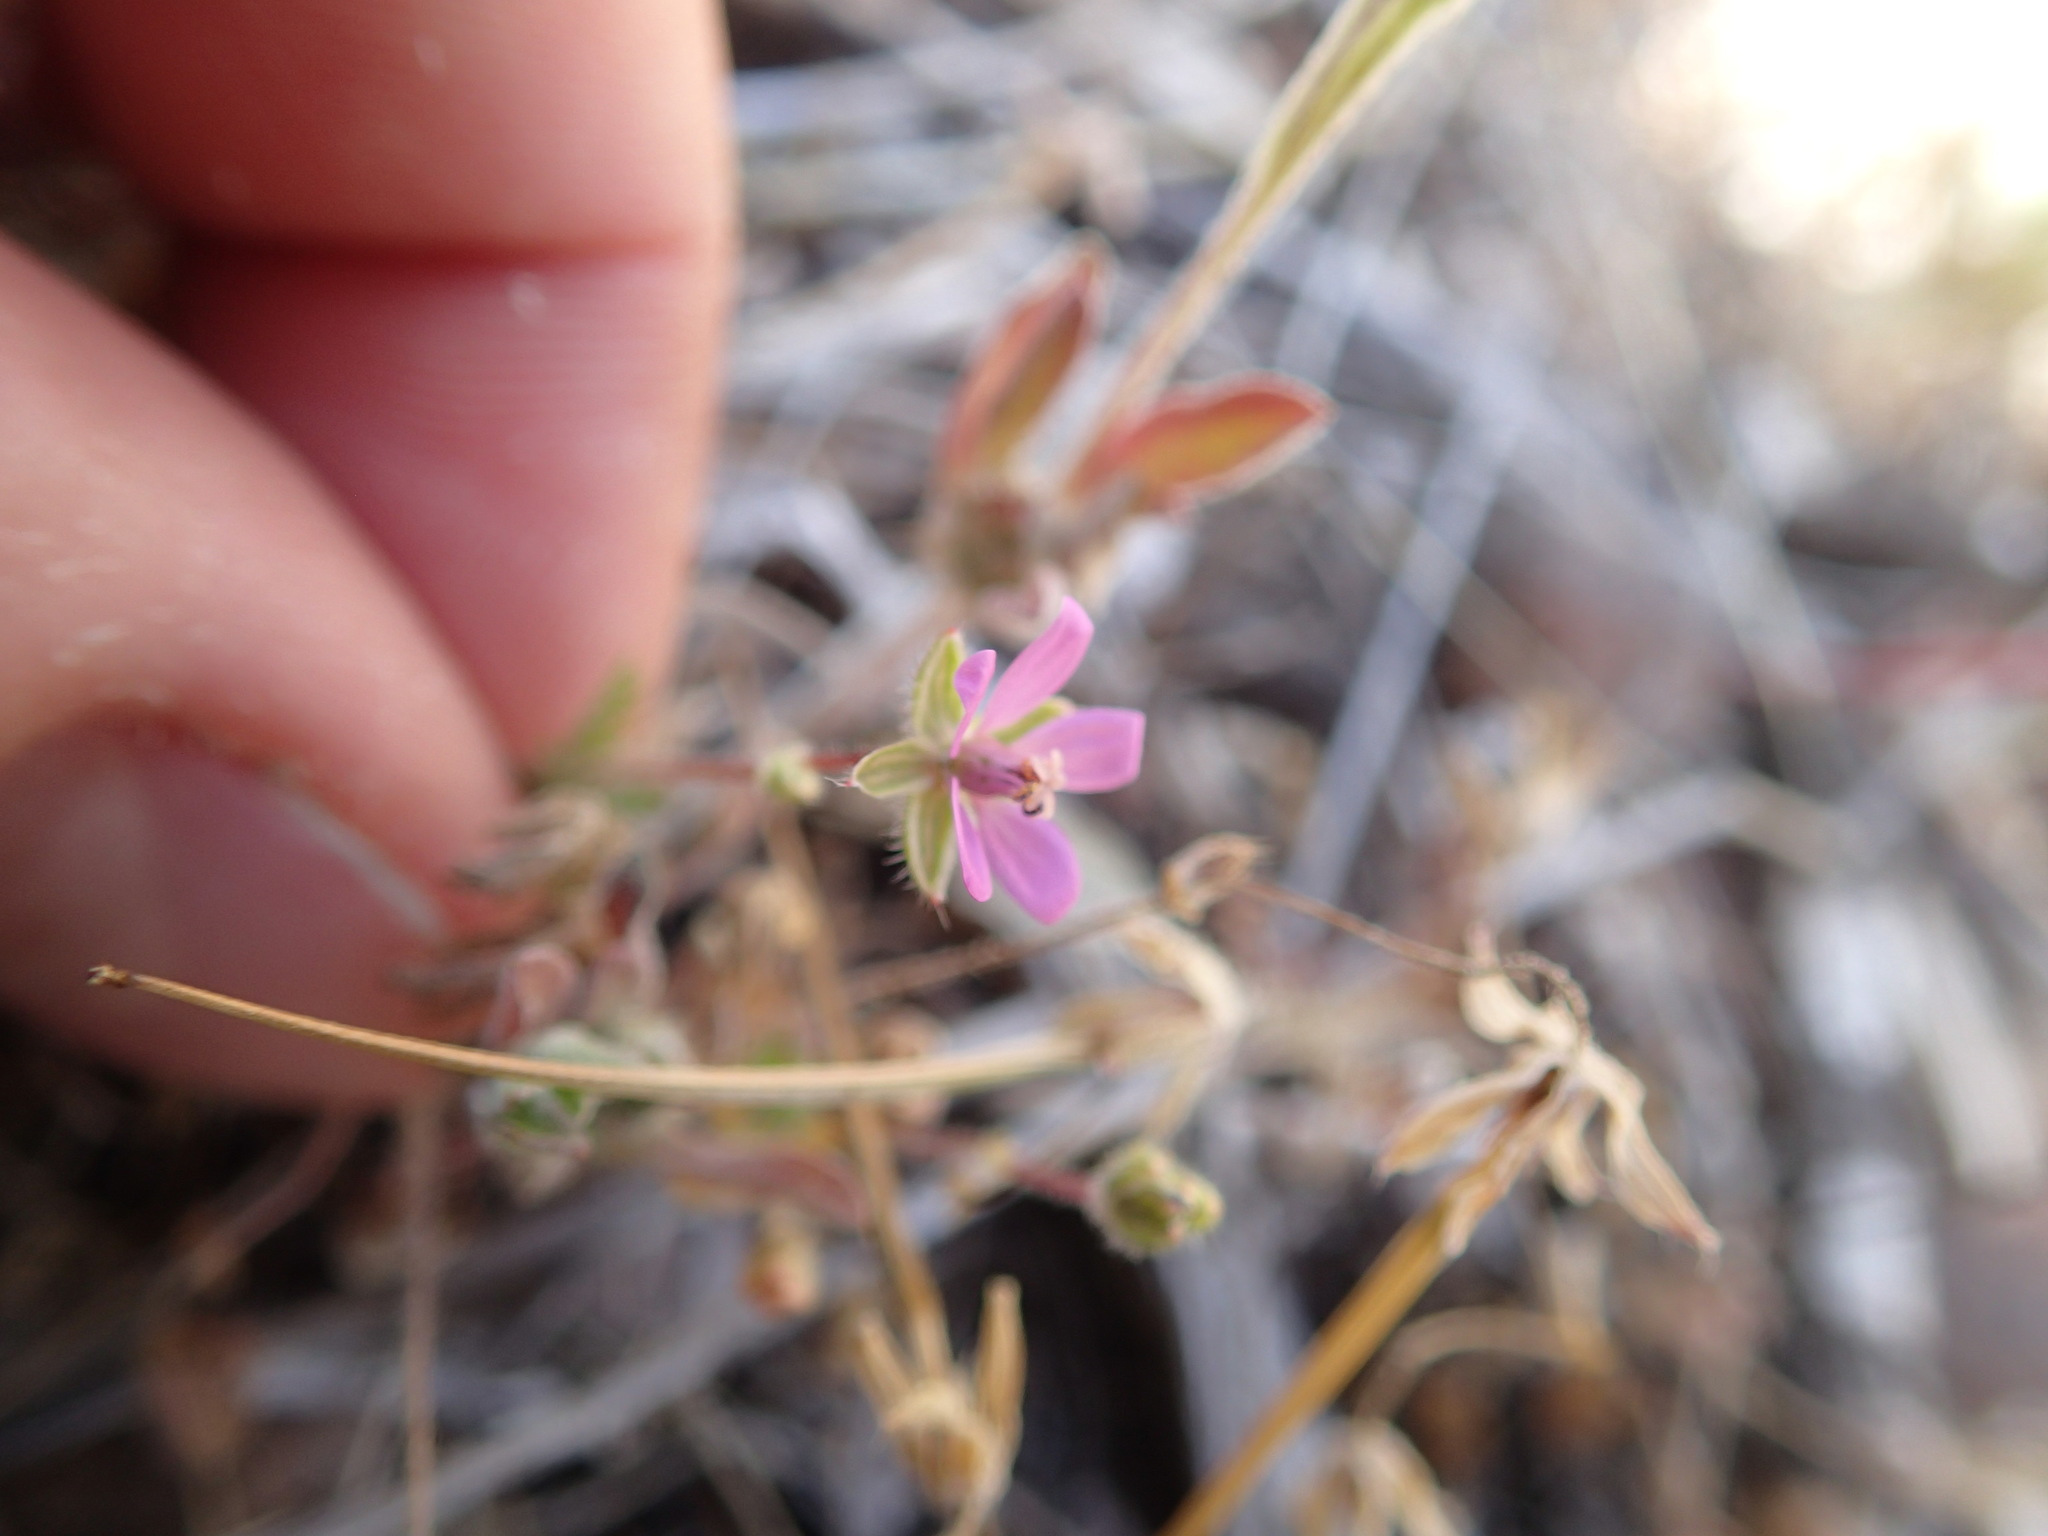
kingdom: Plantae
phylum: Tracheophyta
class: Magnoliopsida
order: Geraniales
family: Geraniaceae
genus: Erodium
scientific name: Erodium cicutarium
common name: Common stork's-bill
